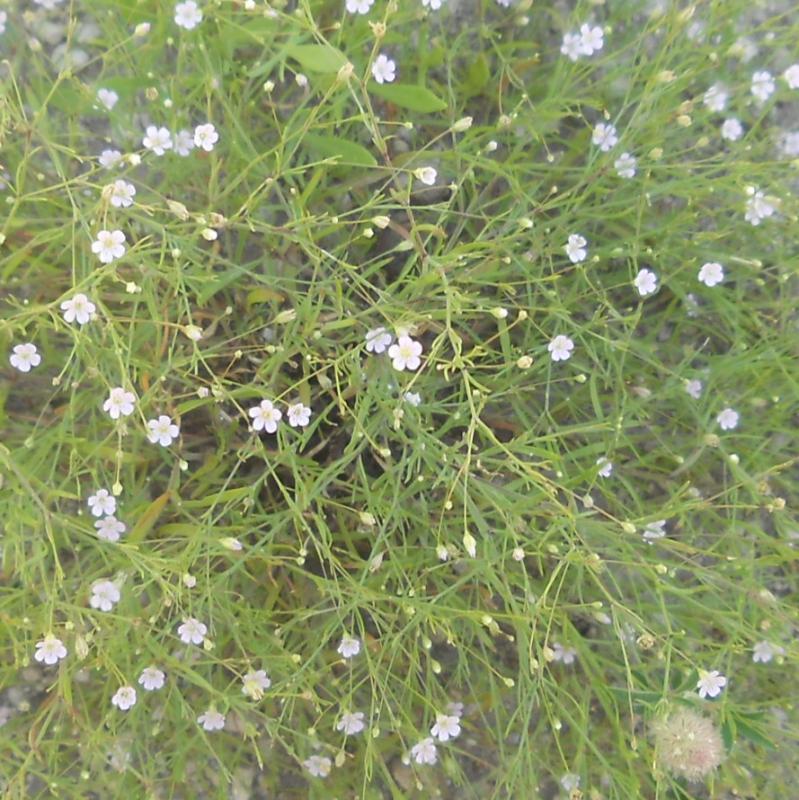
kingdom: Plantae
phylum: Tracheophyta
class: Magnoliopsida
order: Caryophyllales
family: Caryophyllaceae
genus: Psammophiliella
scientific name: Psammophiliella muralis
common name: Cushion baby's-breath
